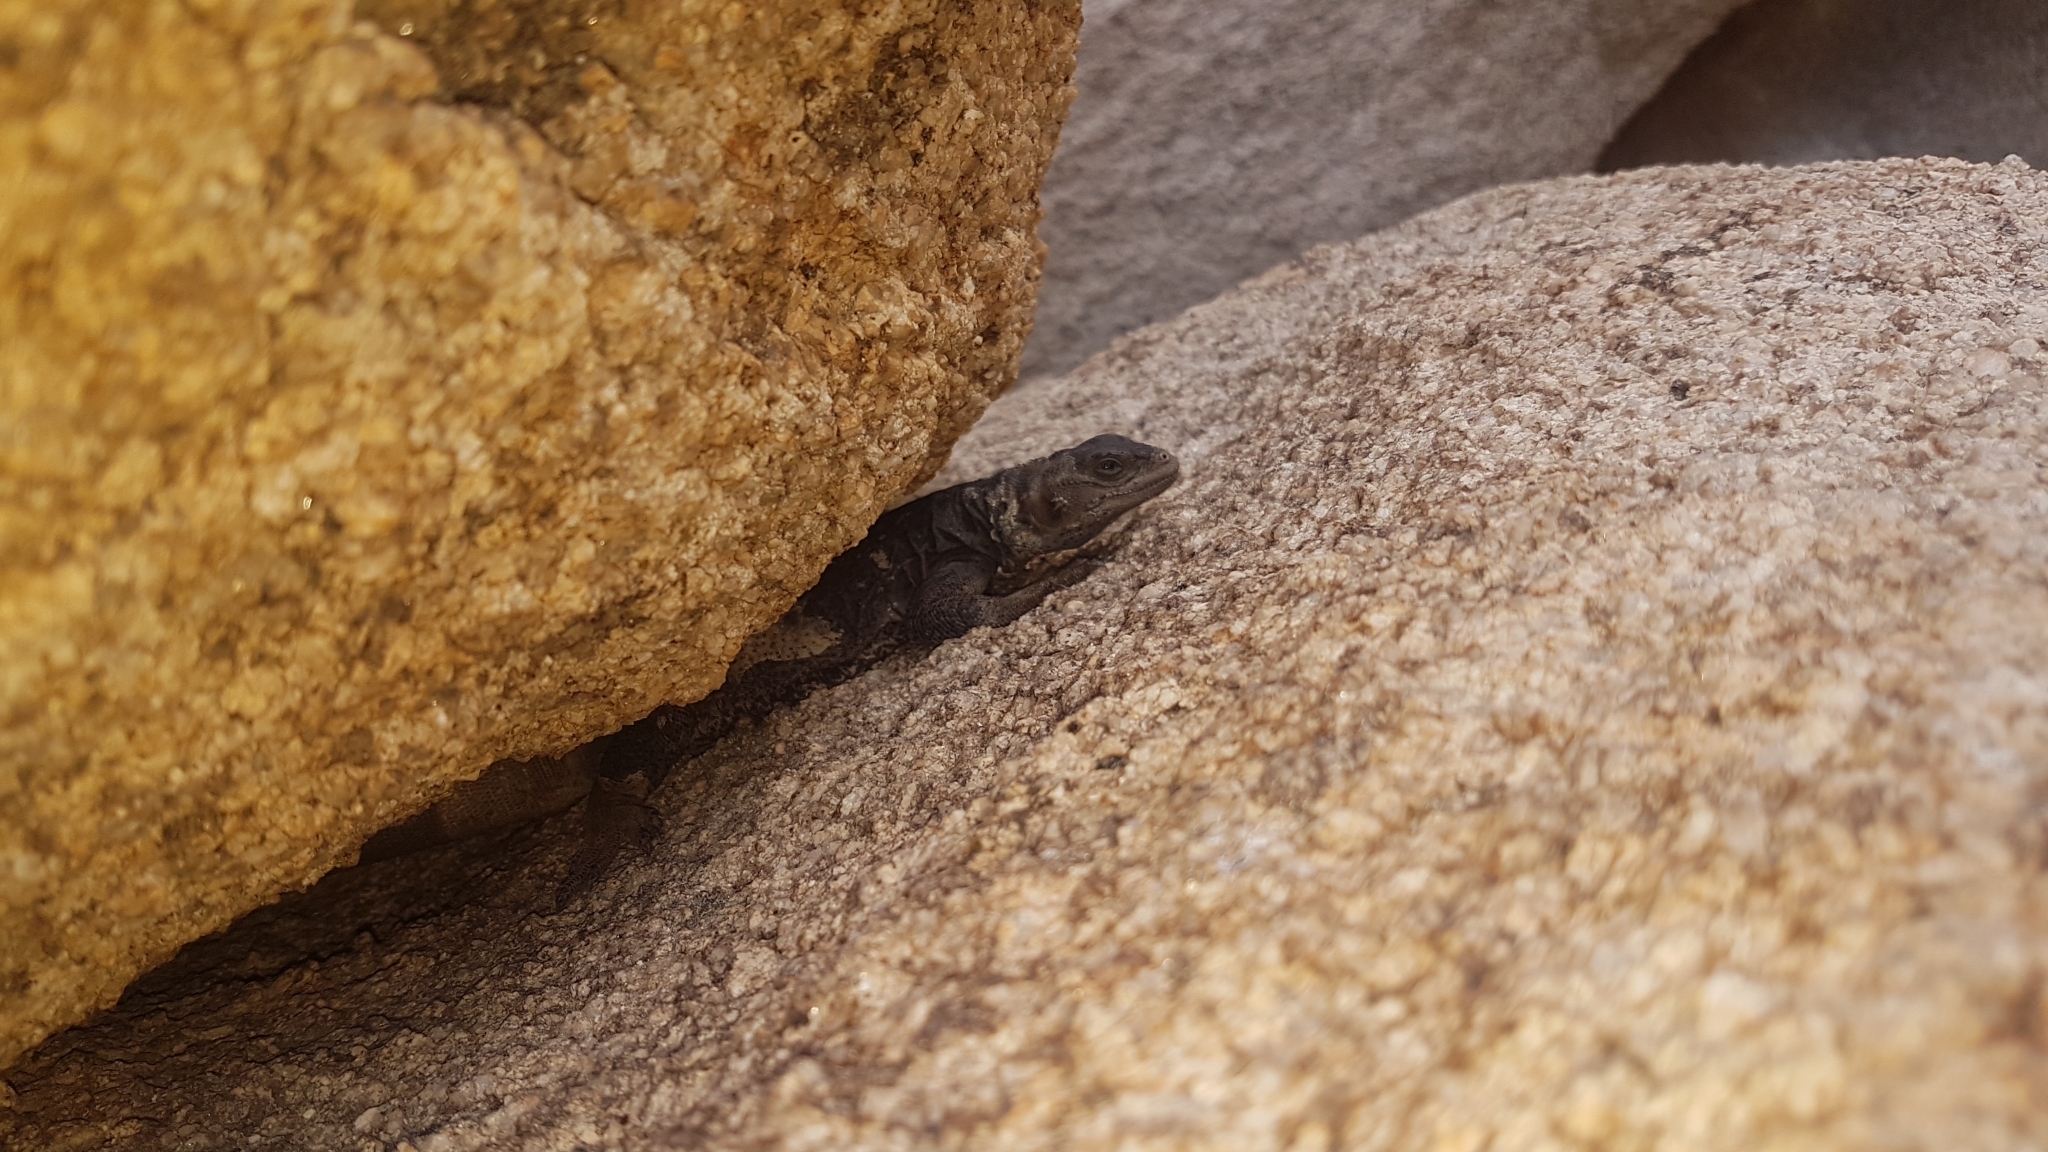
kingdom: Animalia
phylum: Chordata
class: Squamata
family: Iguanidae
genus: Sauromalus
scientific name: Sauromalus ater
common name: Northern chuckwalla
